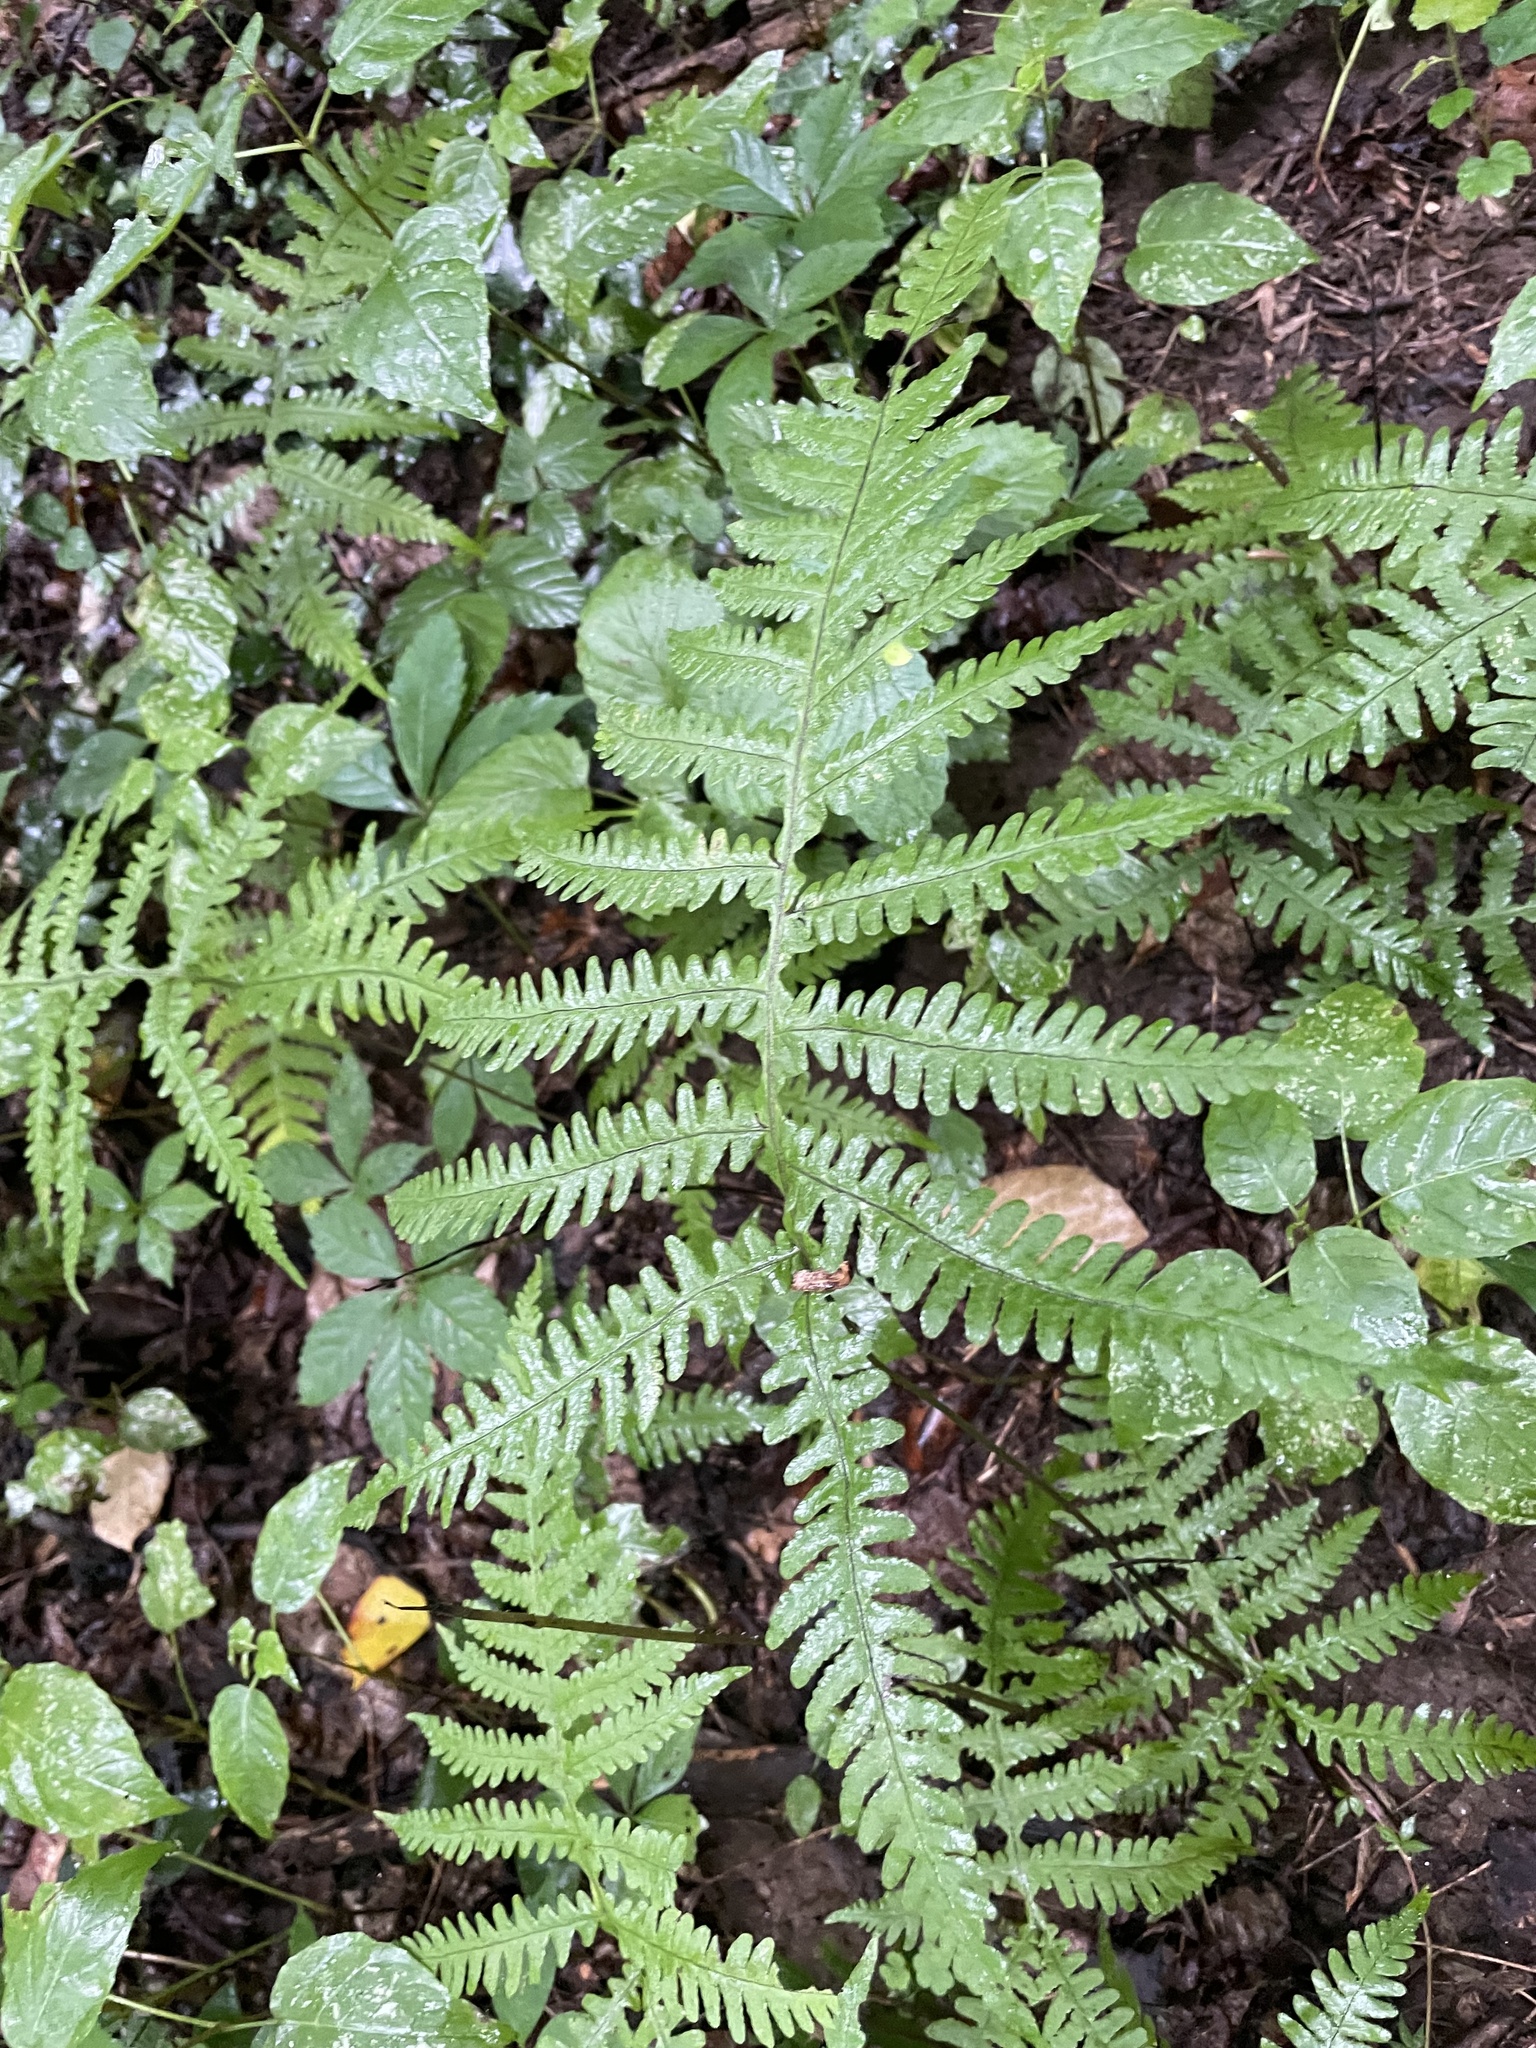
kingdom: Plantae
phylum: Tracheophyta
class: Polypodiopsida
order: Polypodiales
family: Thelypteridaceae
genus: Phegopteris
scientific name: Phegopteris hexagonoptera
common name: Broad beech fern
